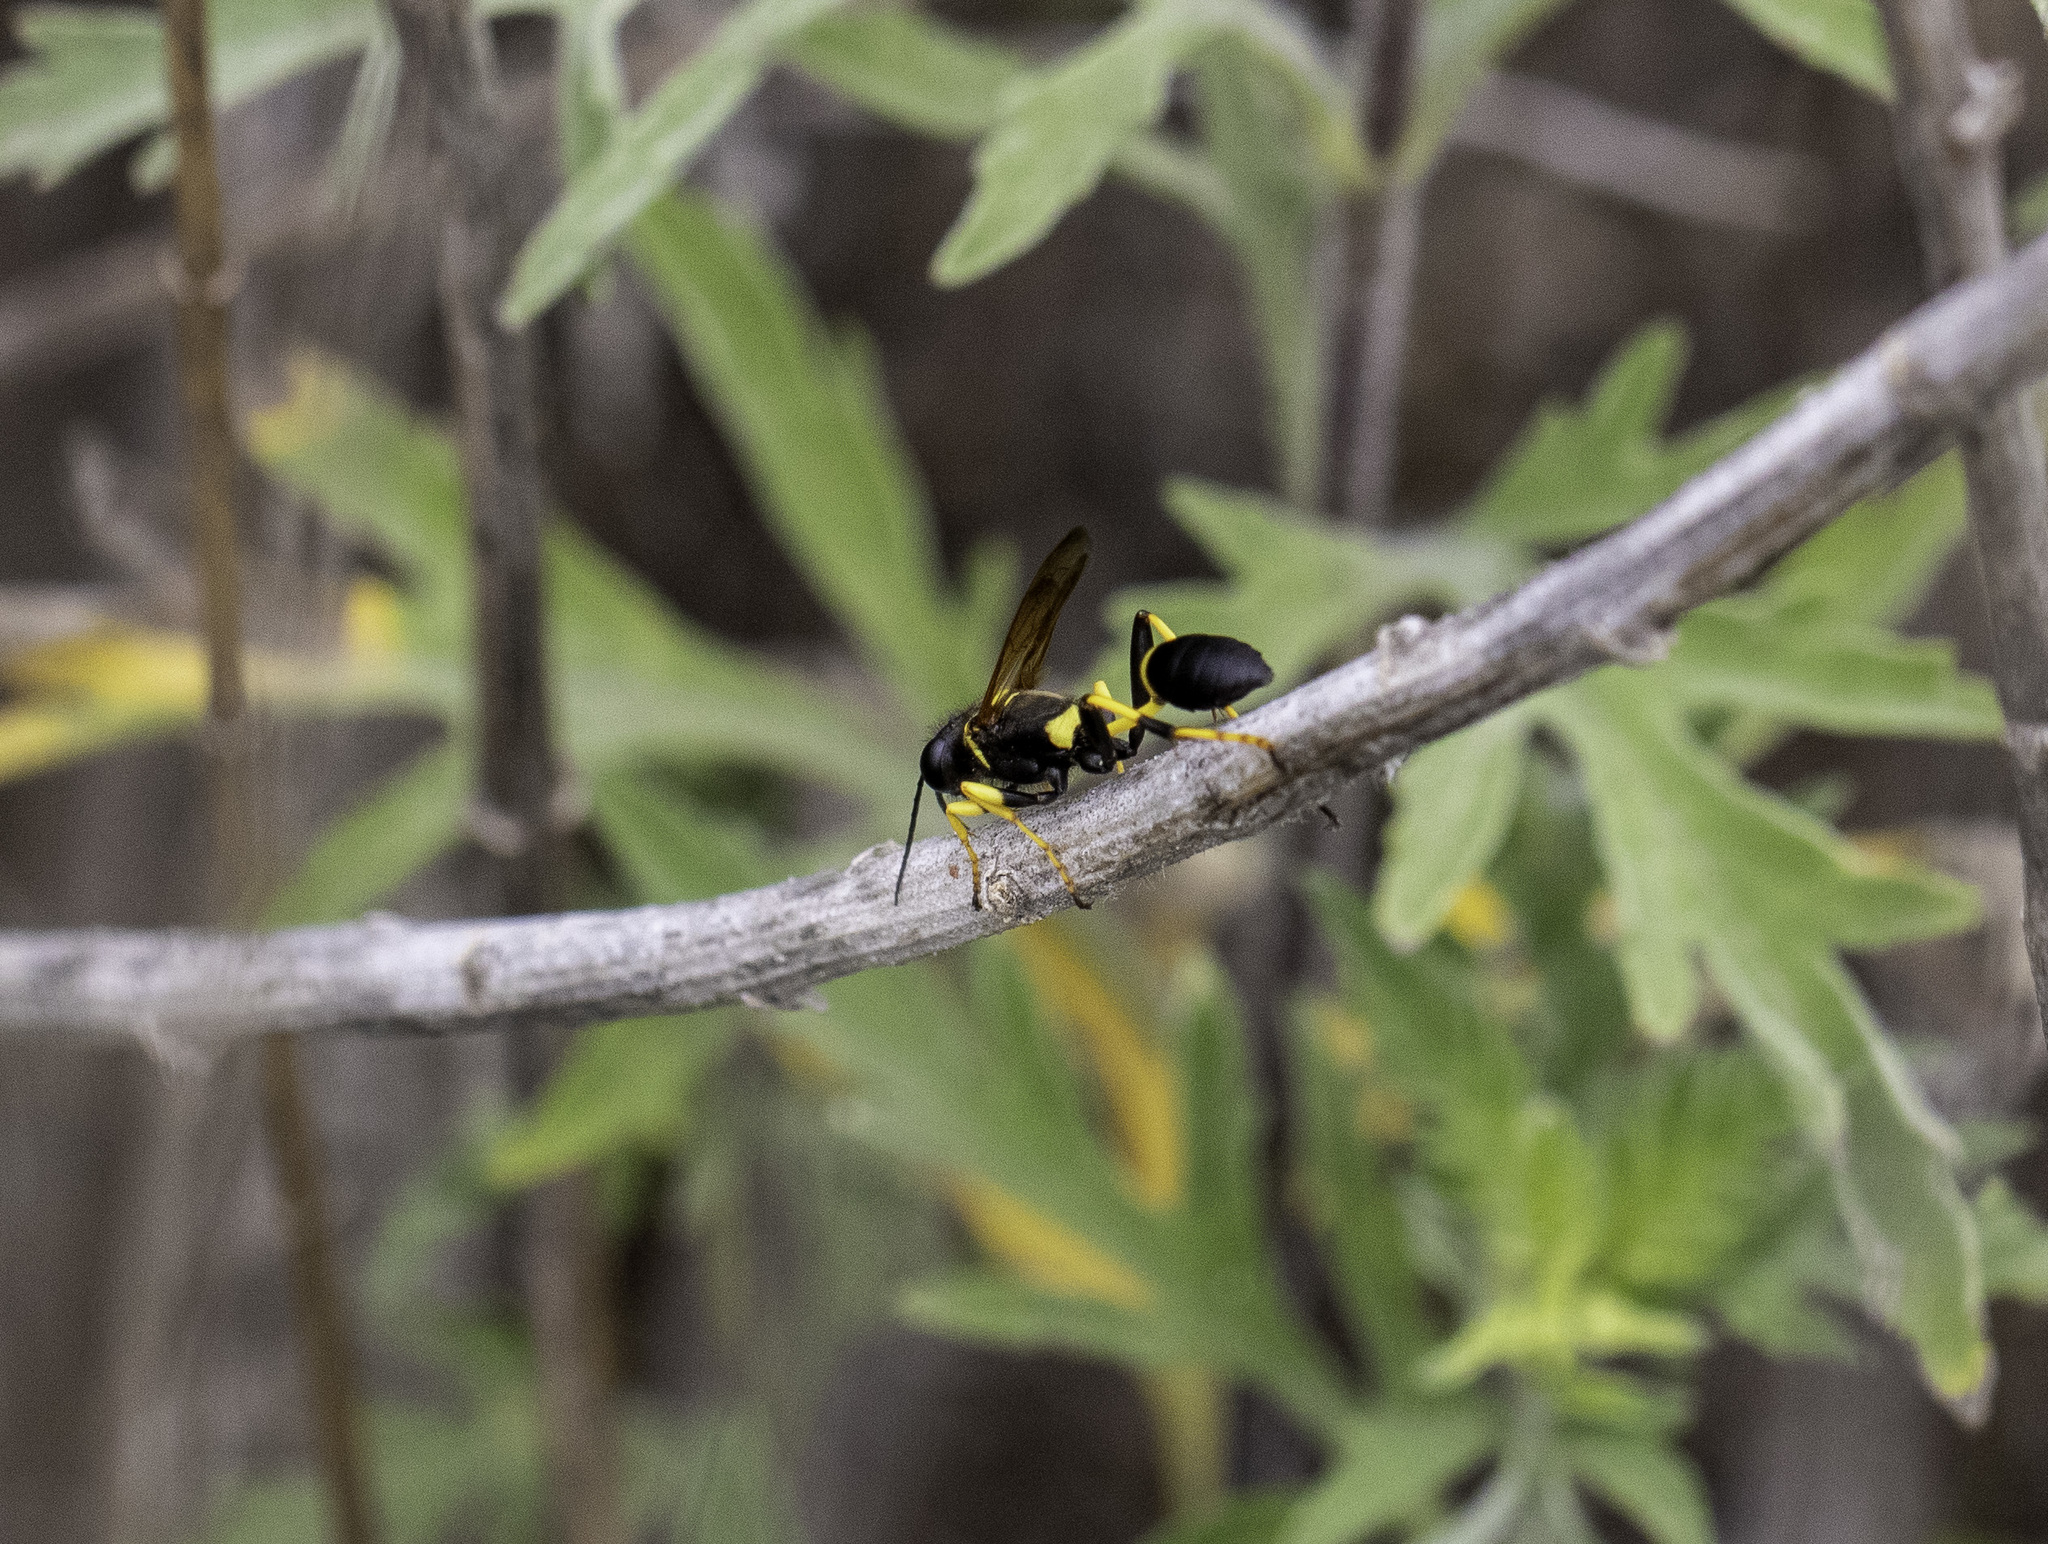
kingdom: Animalia
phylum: Arthropoda
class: Insecta
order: Hymenoptera
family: Sphecidae
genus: Sceliphron
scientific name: Sceliphron caementarium
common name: Mud dauber
